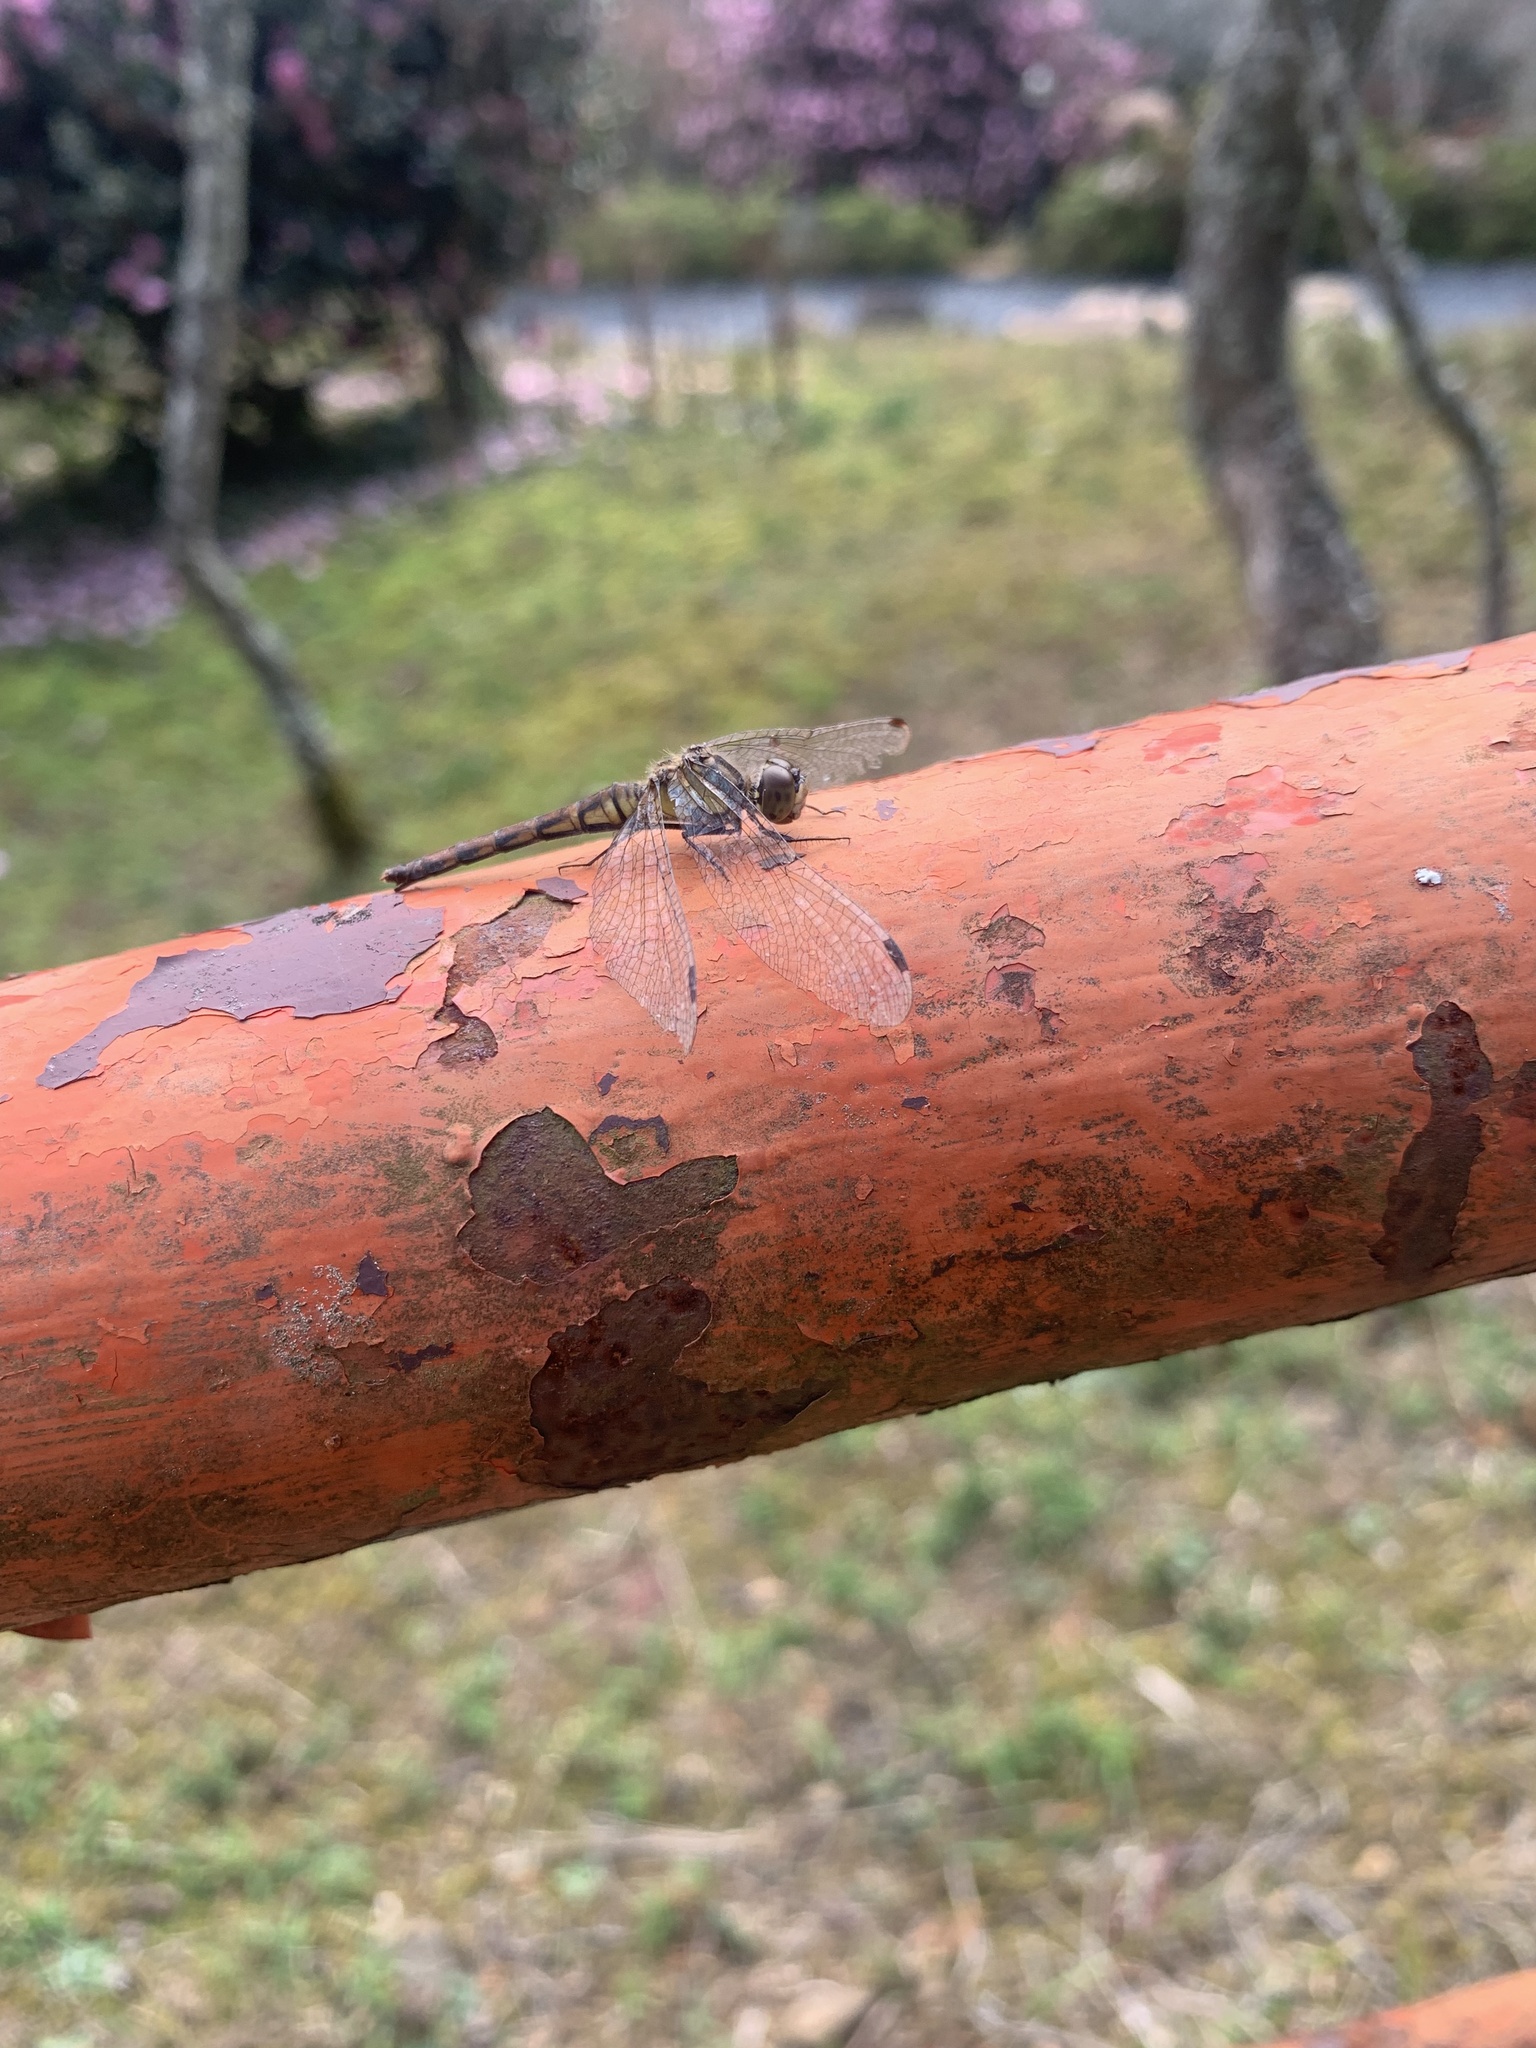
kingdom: Animalia
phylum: Arthropoda
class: Insecta
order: Odonata
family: Libellulidae
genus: Sympetrum
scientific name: Sympetrum eroticum
